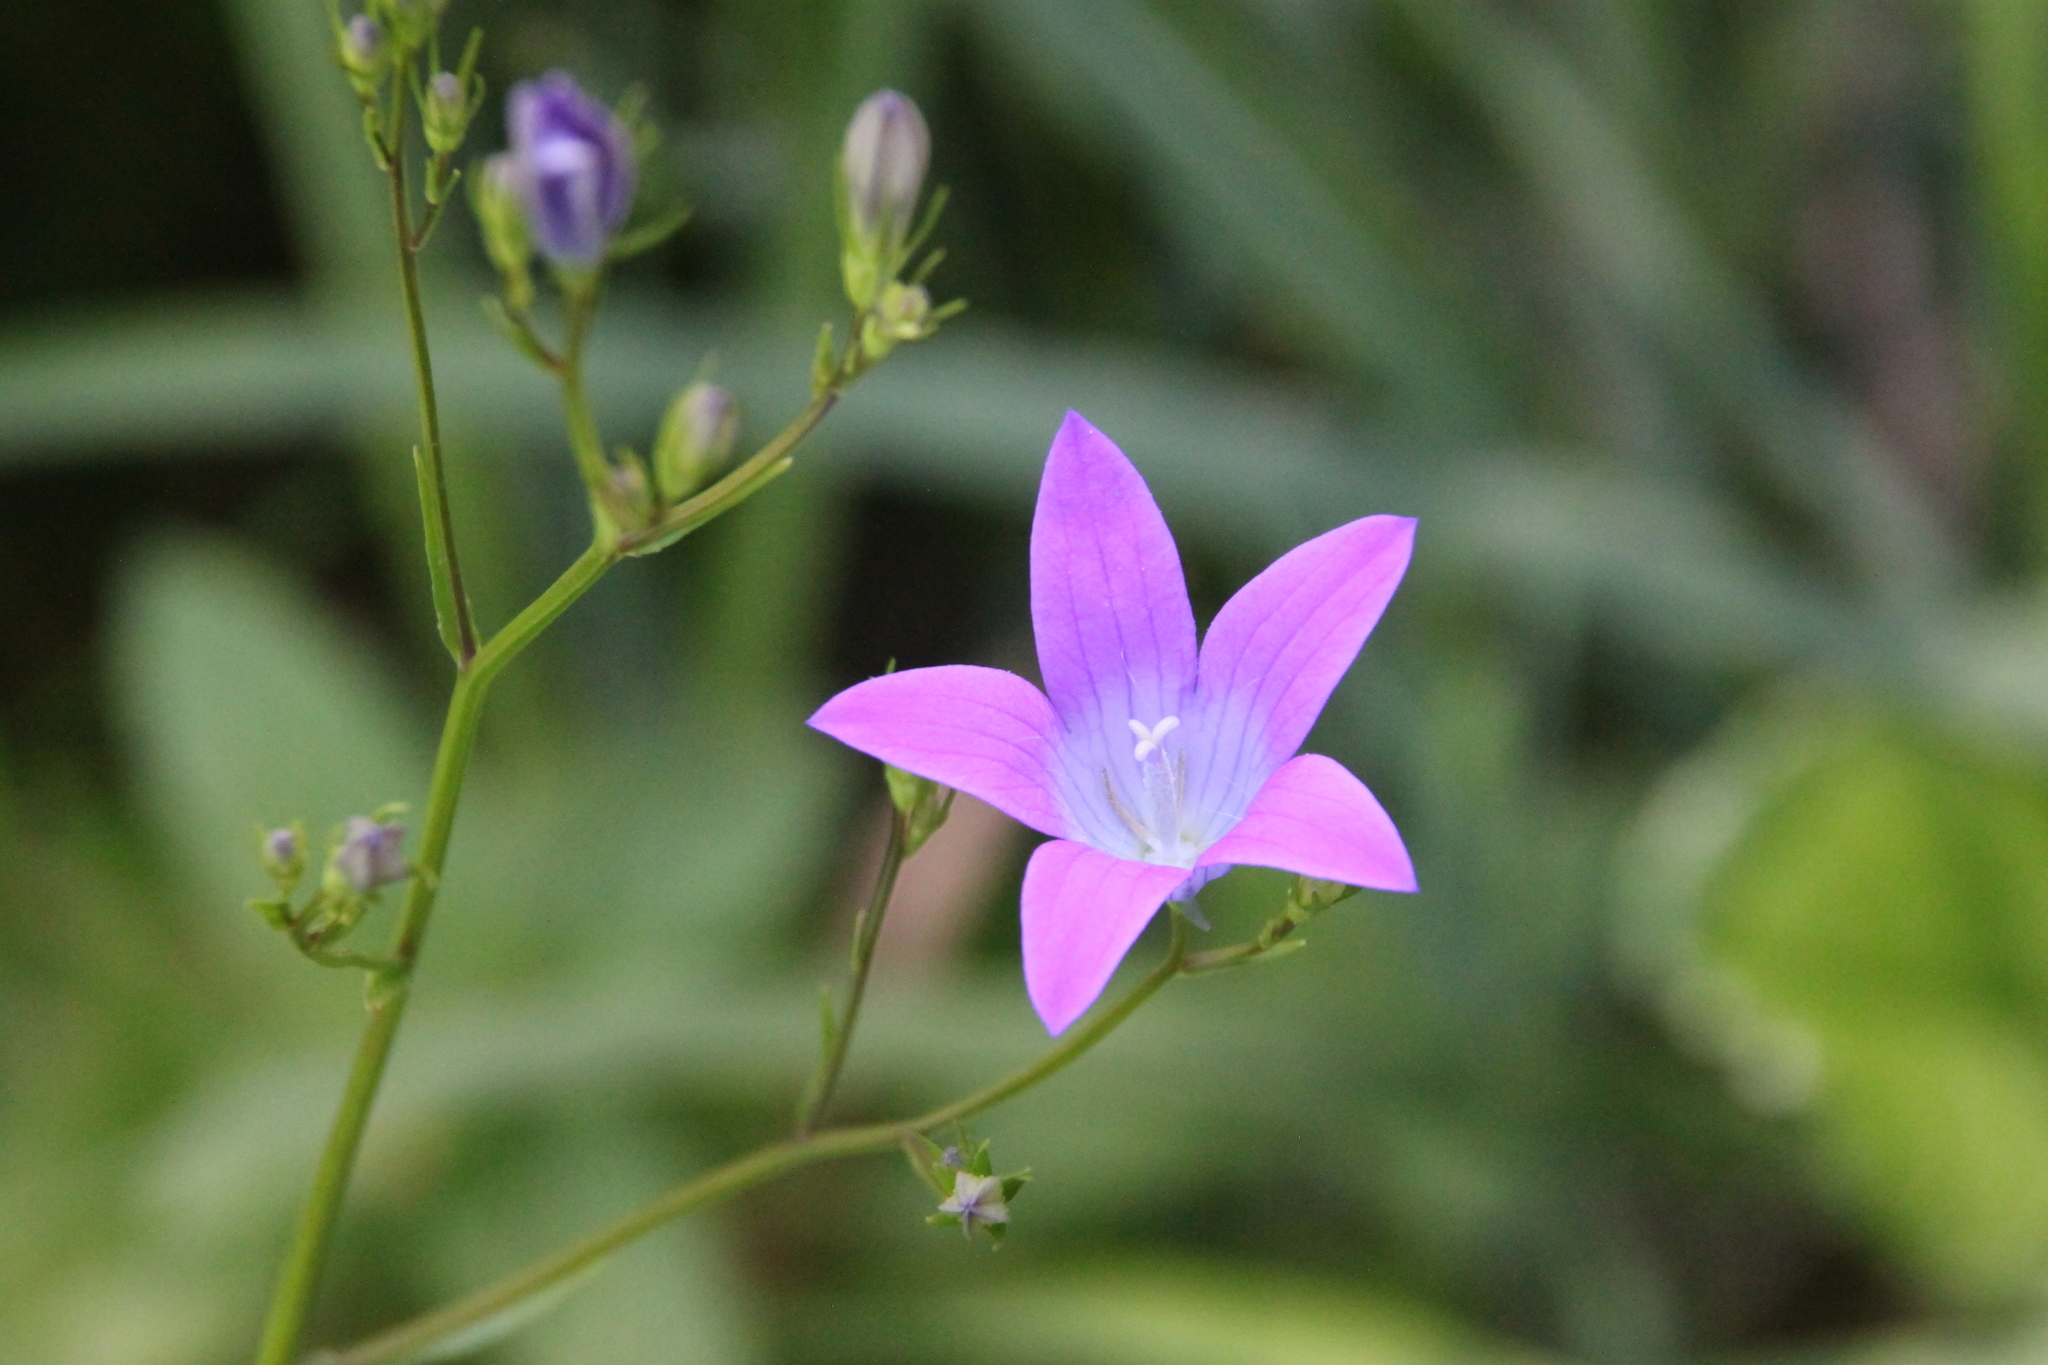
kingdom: Plantae
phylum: Tracheophyta
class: Magnoliopsida
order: Asterales
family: Campanulaceae
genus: Campanula
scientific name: Campanula patula
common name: Spreading bellflower
